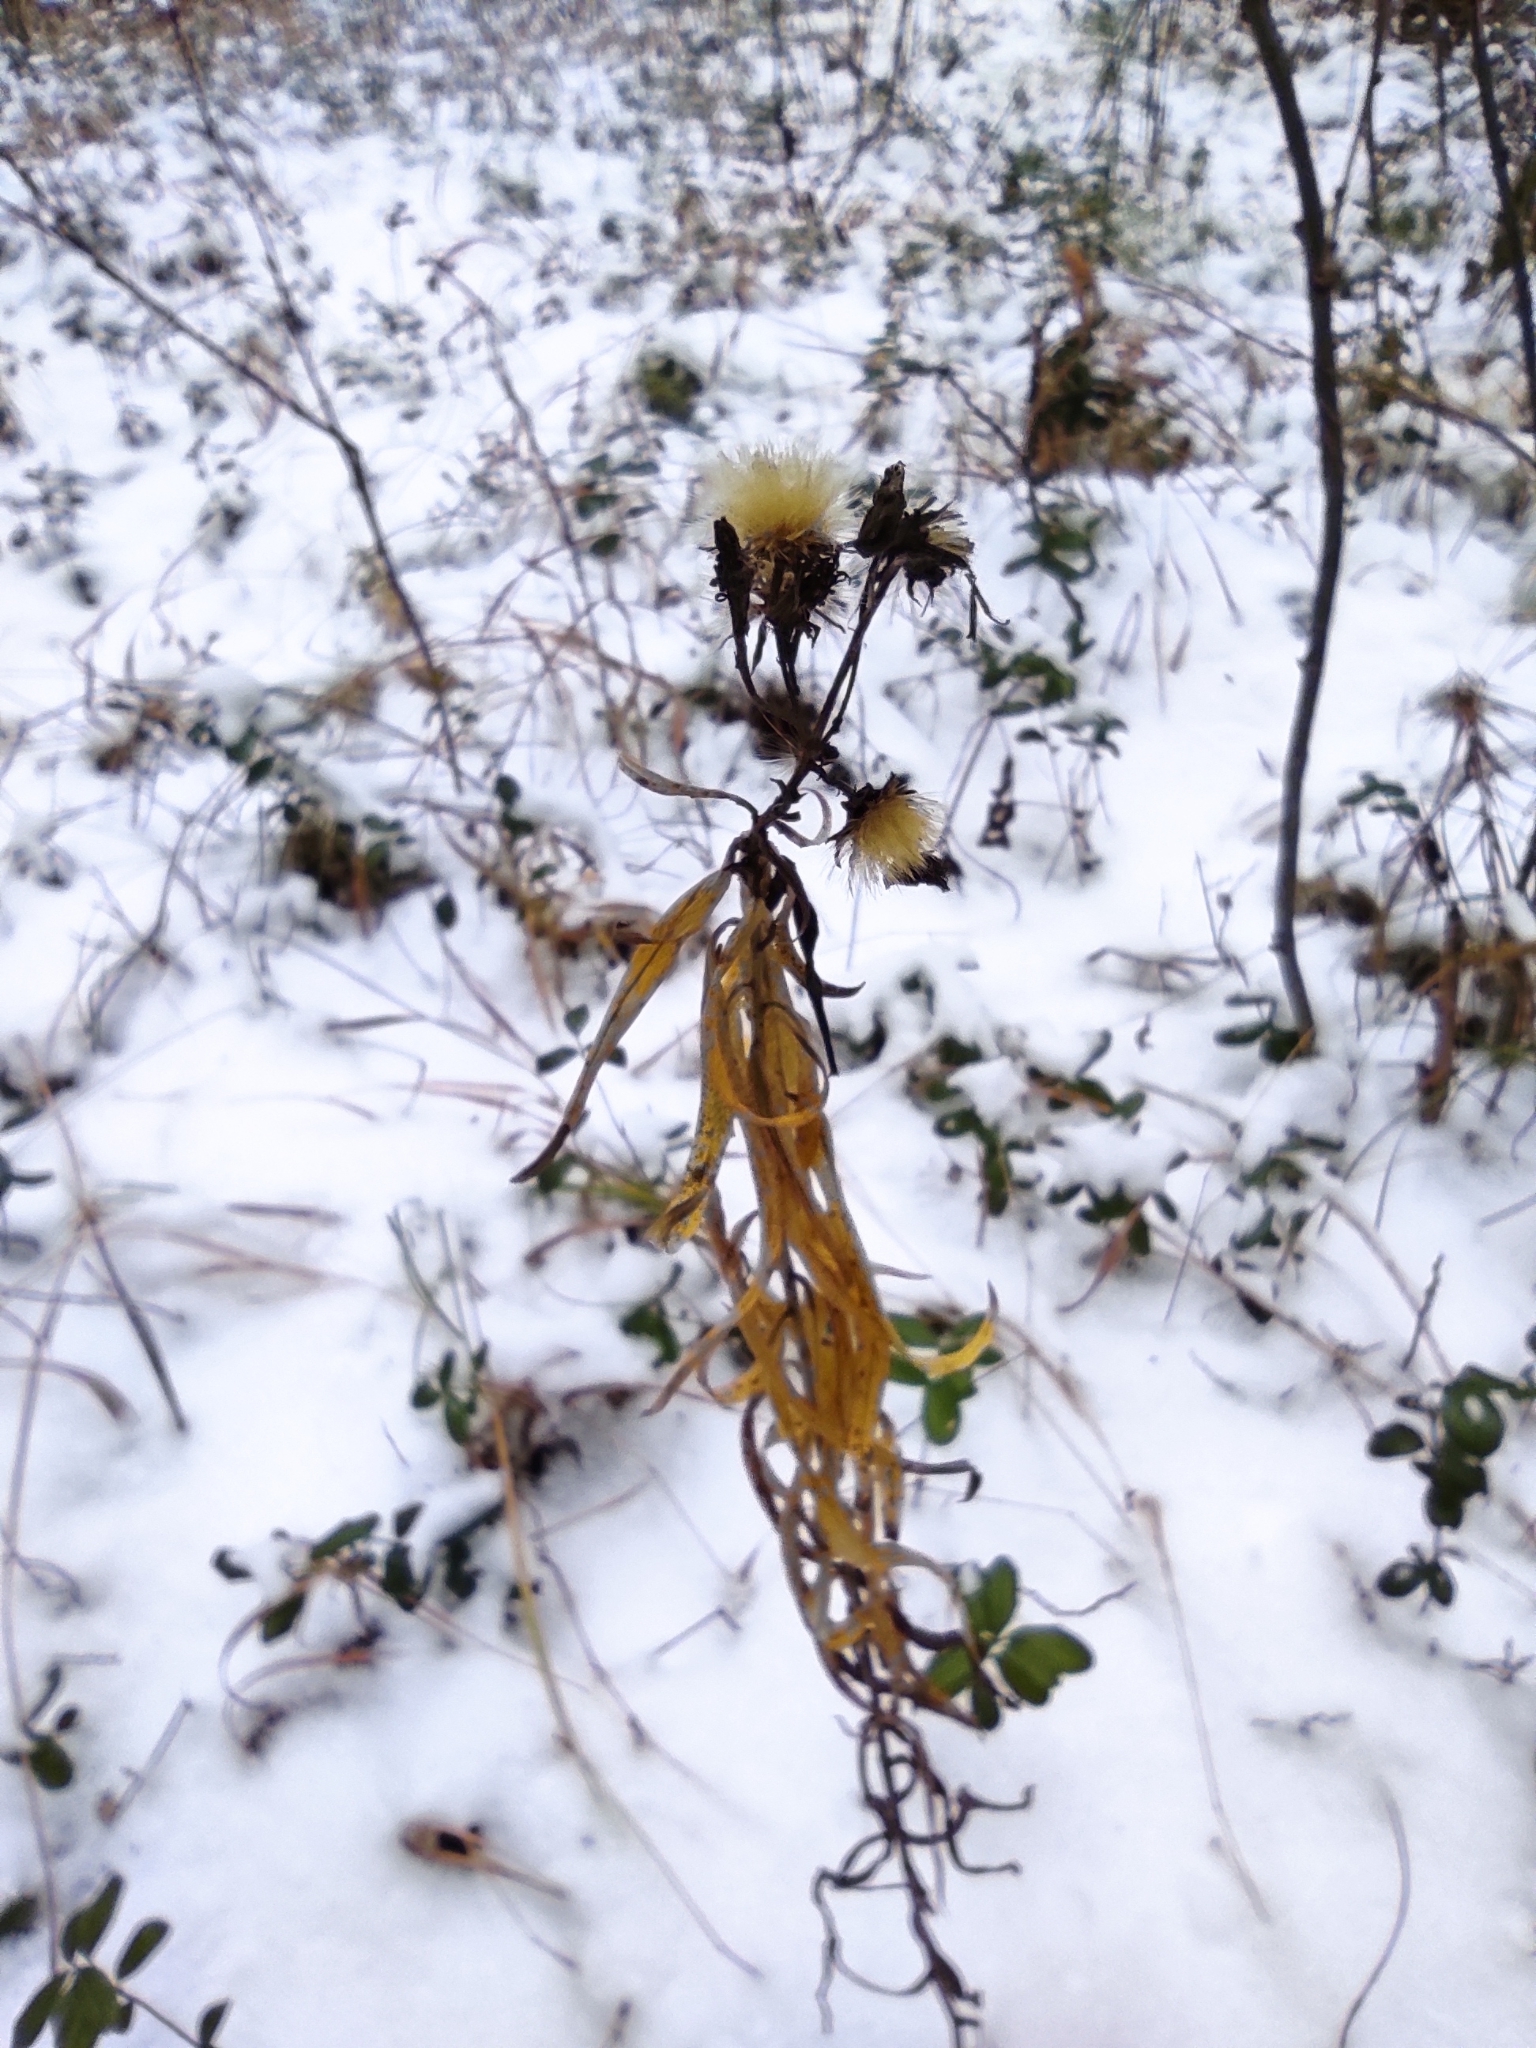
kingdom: Plantae
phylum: Tracheophyta
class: Magnoliopsida
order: Asterales
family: Asteraceae
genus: Hieracium
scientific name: Hieracium umbellatum
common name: Northern hawkweed
